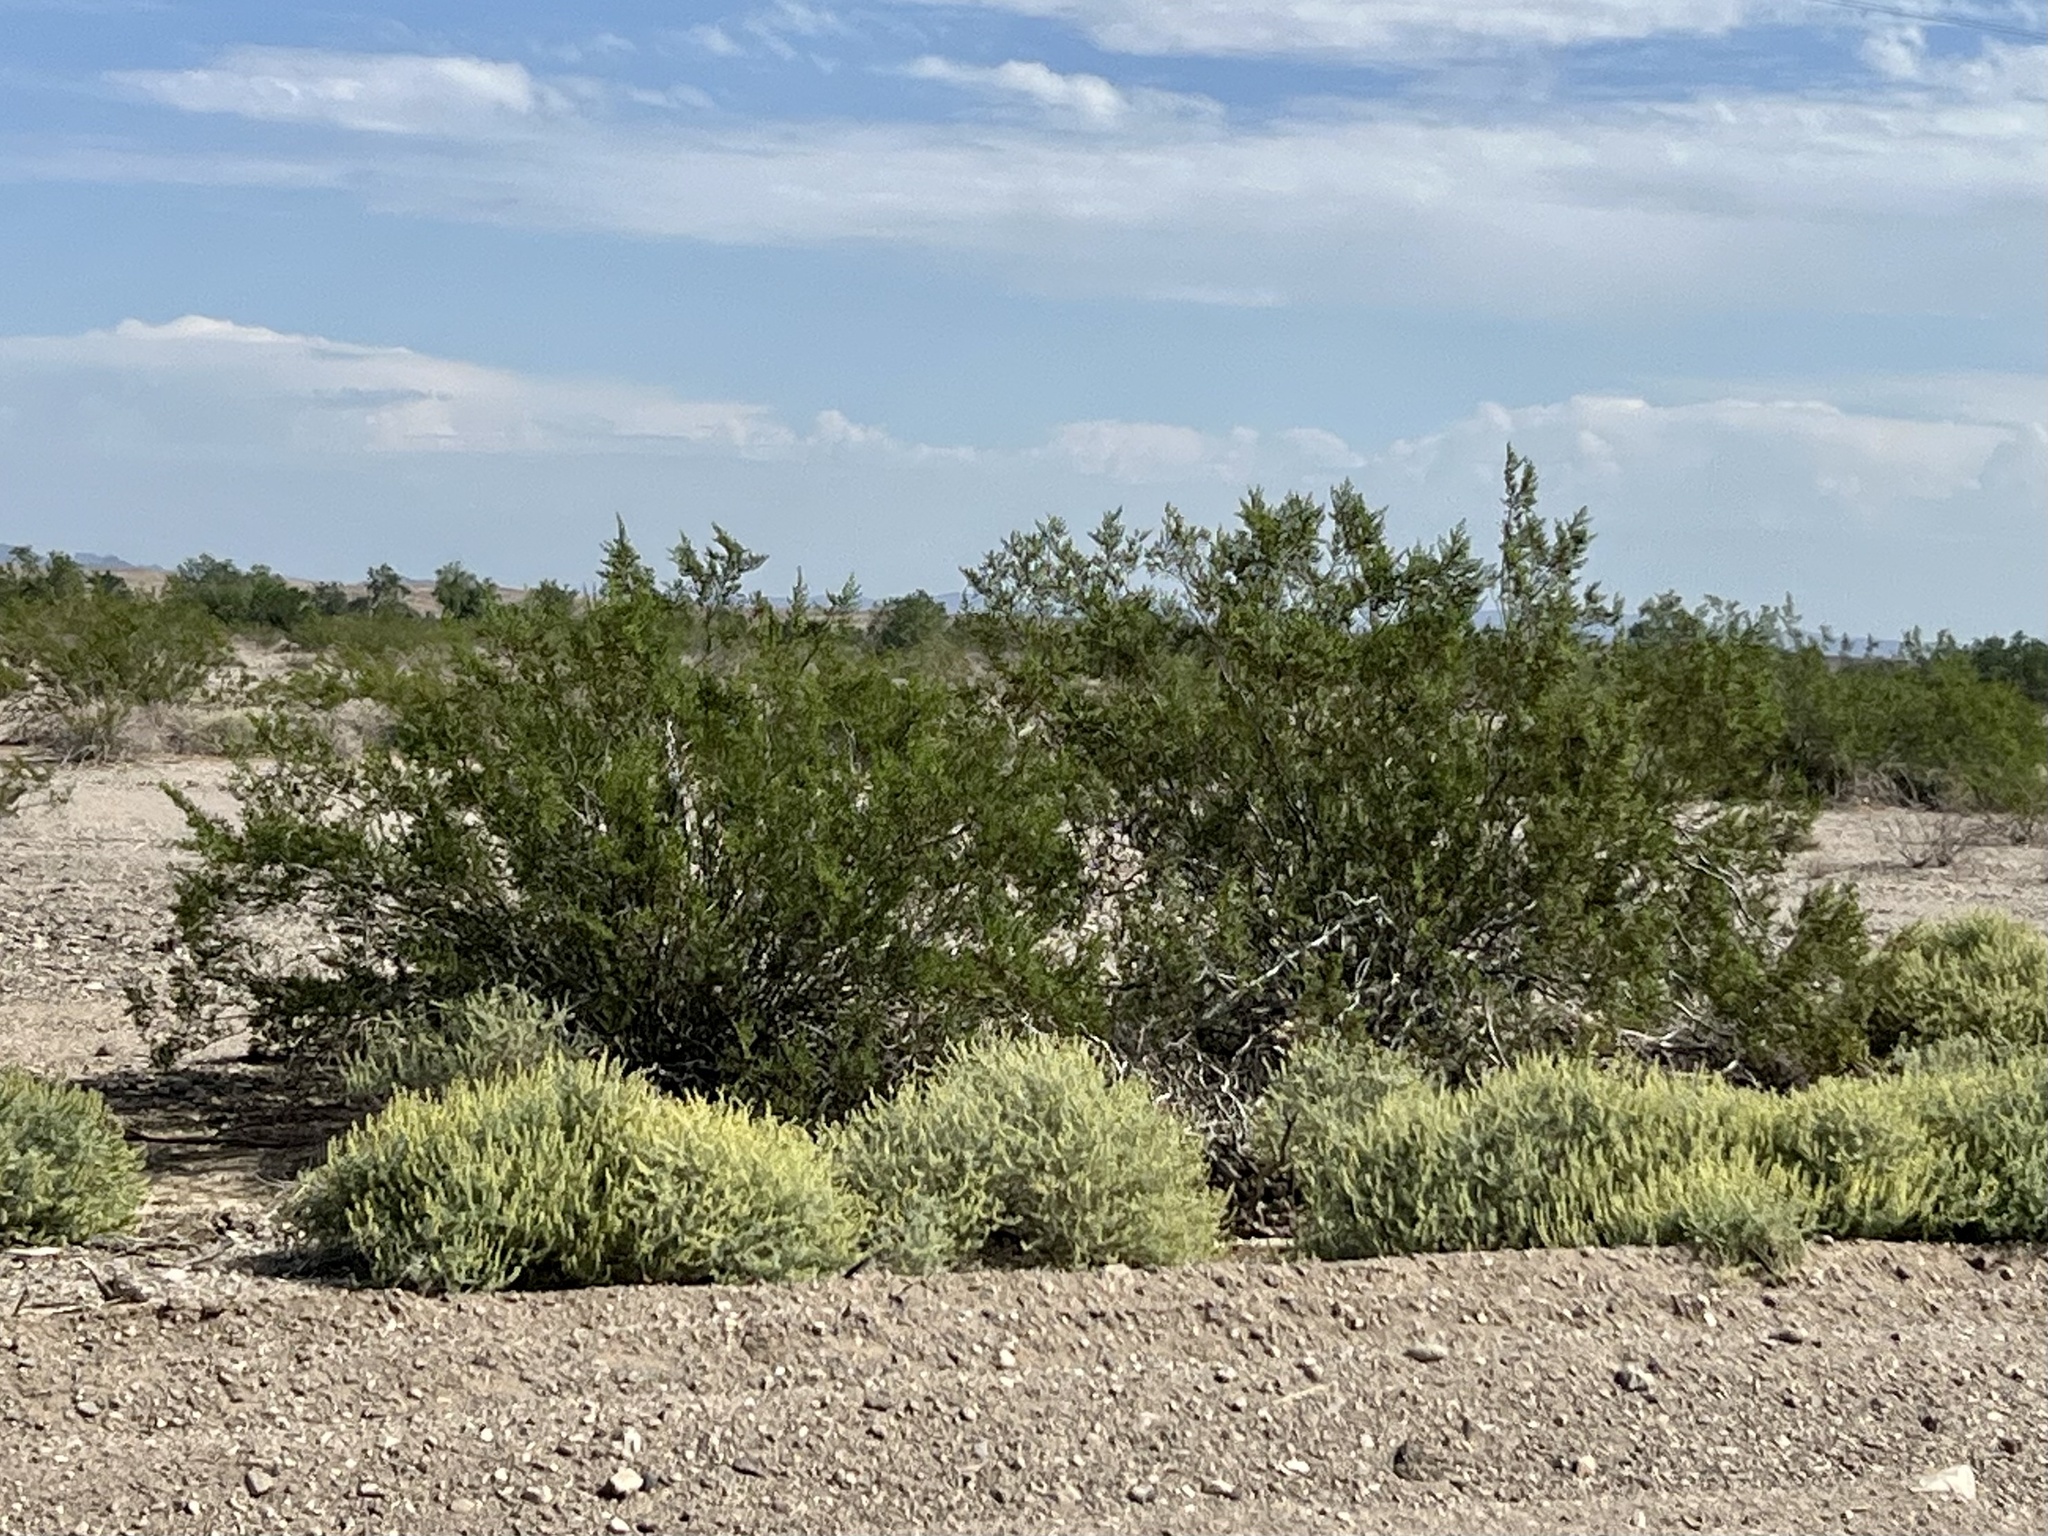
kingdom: Plantae
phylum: Tracheophyta
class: Magnoliopsida
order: Zygophyllales
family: Zygophyllaceae
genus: Larrea
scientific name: Larrea tridentata
